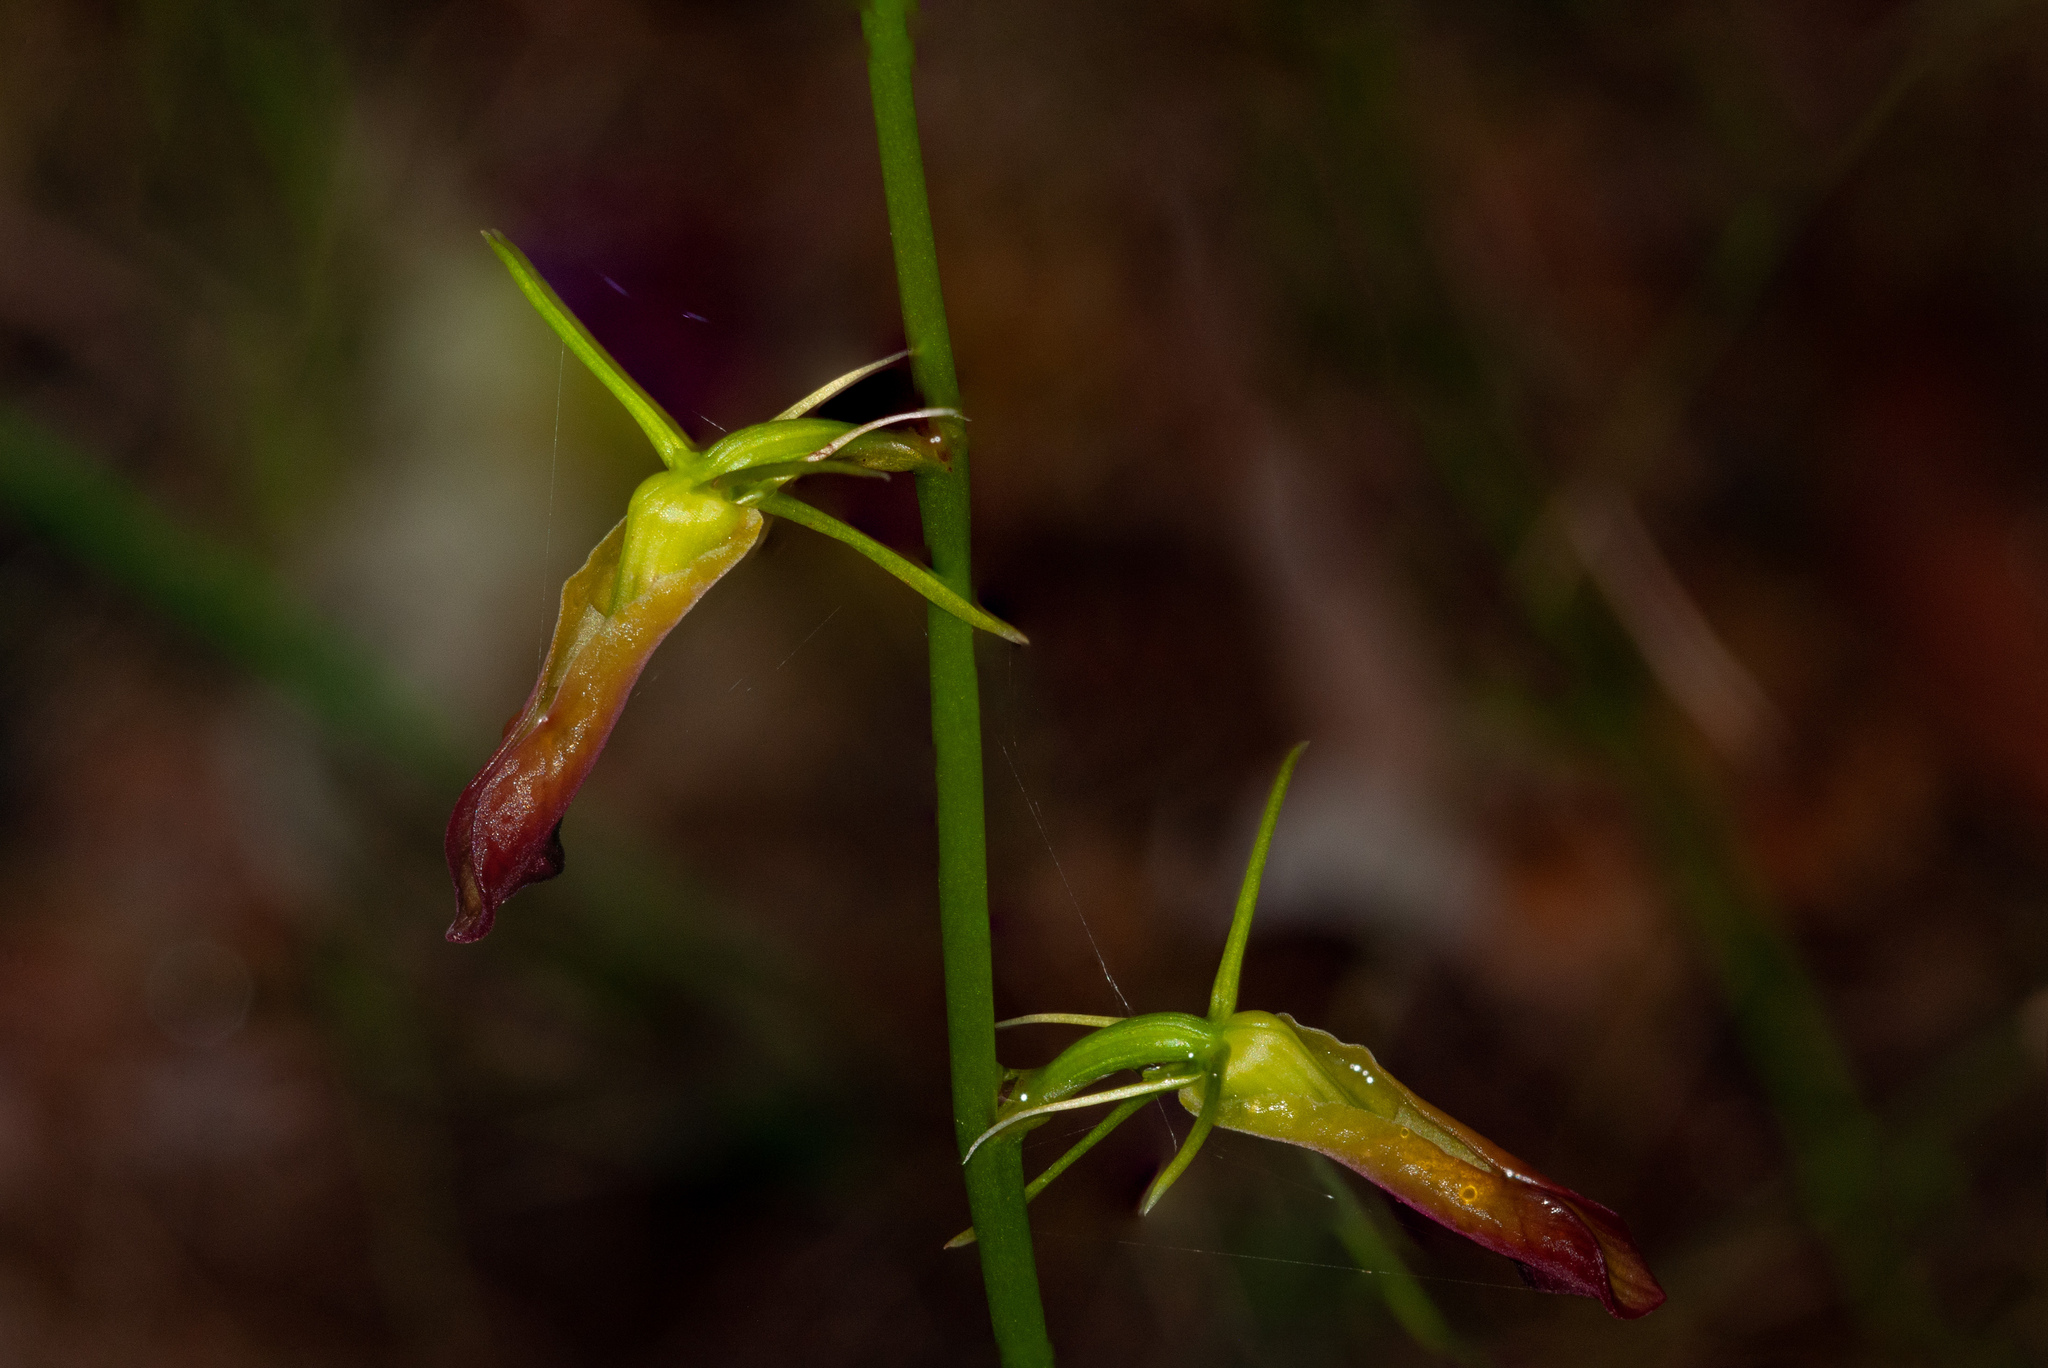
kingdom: Plantae
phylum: Tracheophyta
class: Liliopsida
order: Asparagales
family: Orchidaceae
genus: Cryptostylis
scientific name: Cryptostylis subulata
